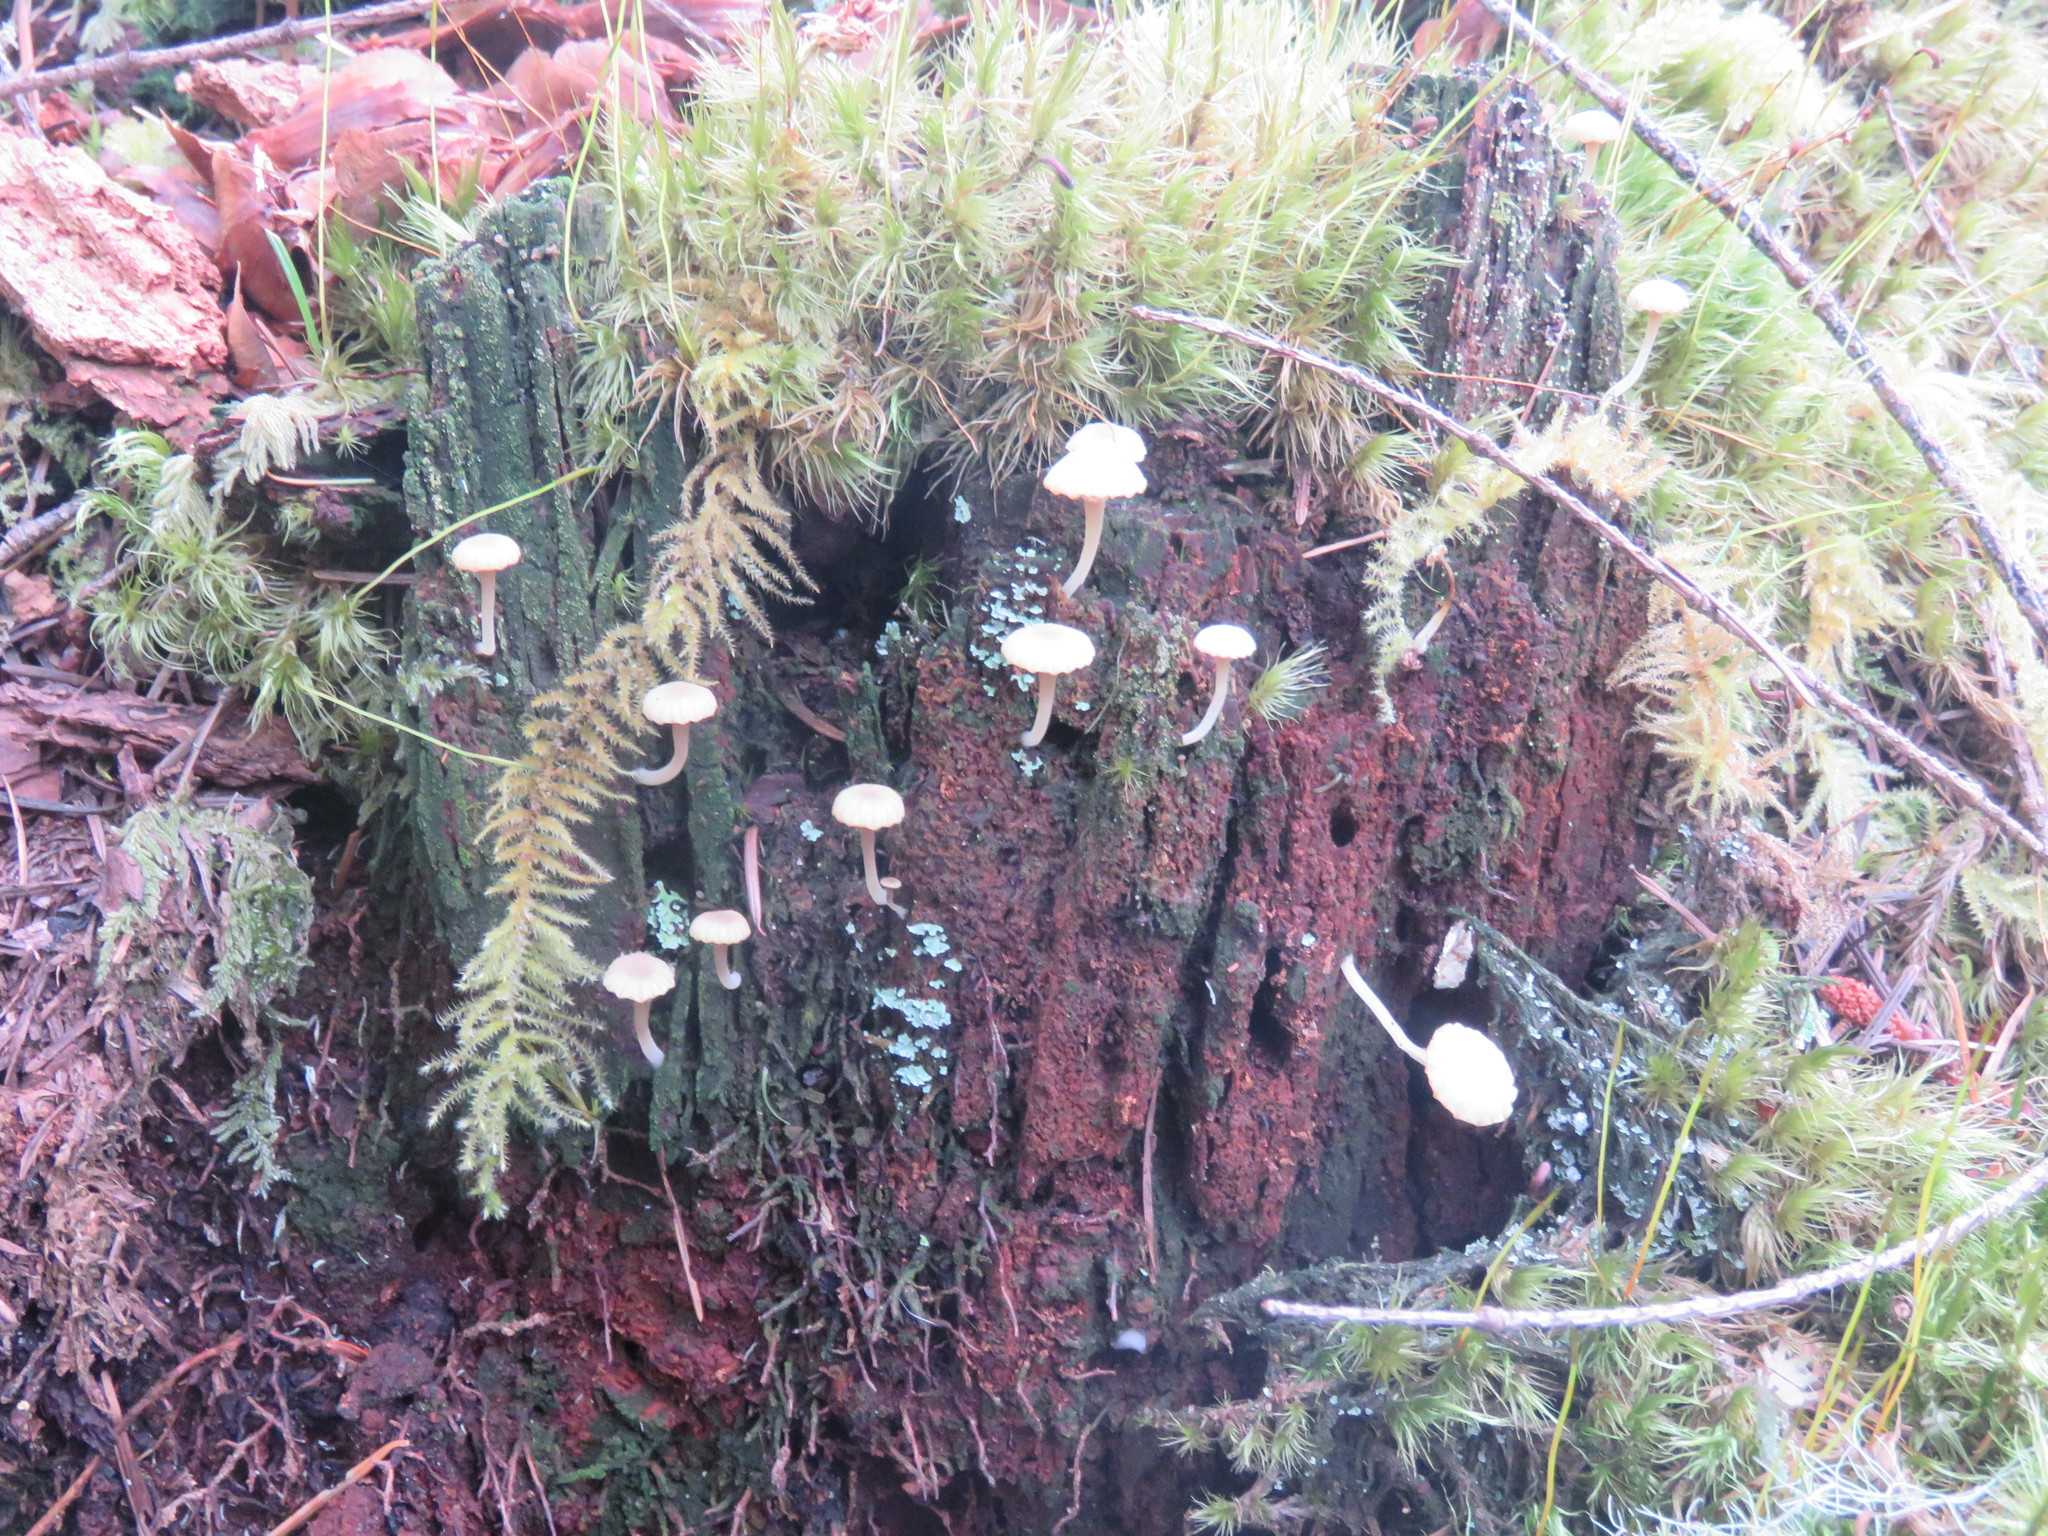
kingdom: Fungi
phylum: Basidiomycota
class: Agaricomycetes
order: Agaricales
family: Hygrophoraceae
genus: Lichenomphalia
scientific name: Lichenomphalia
